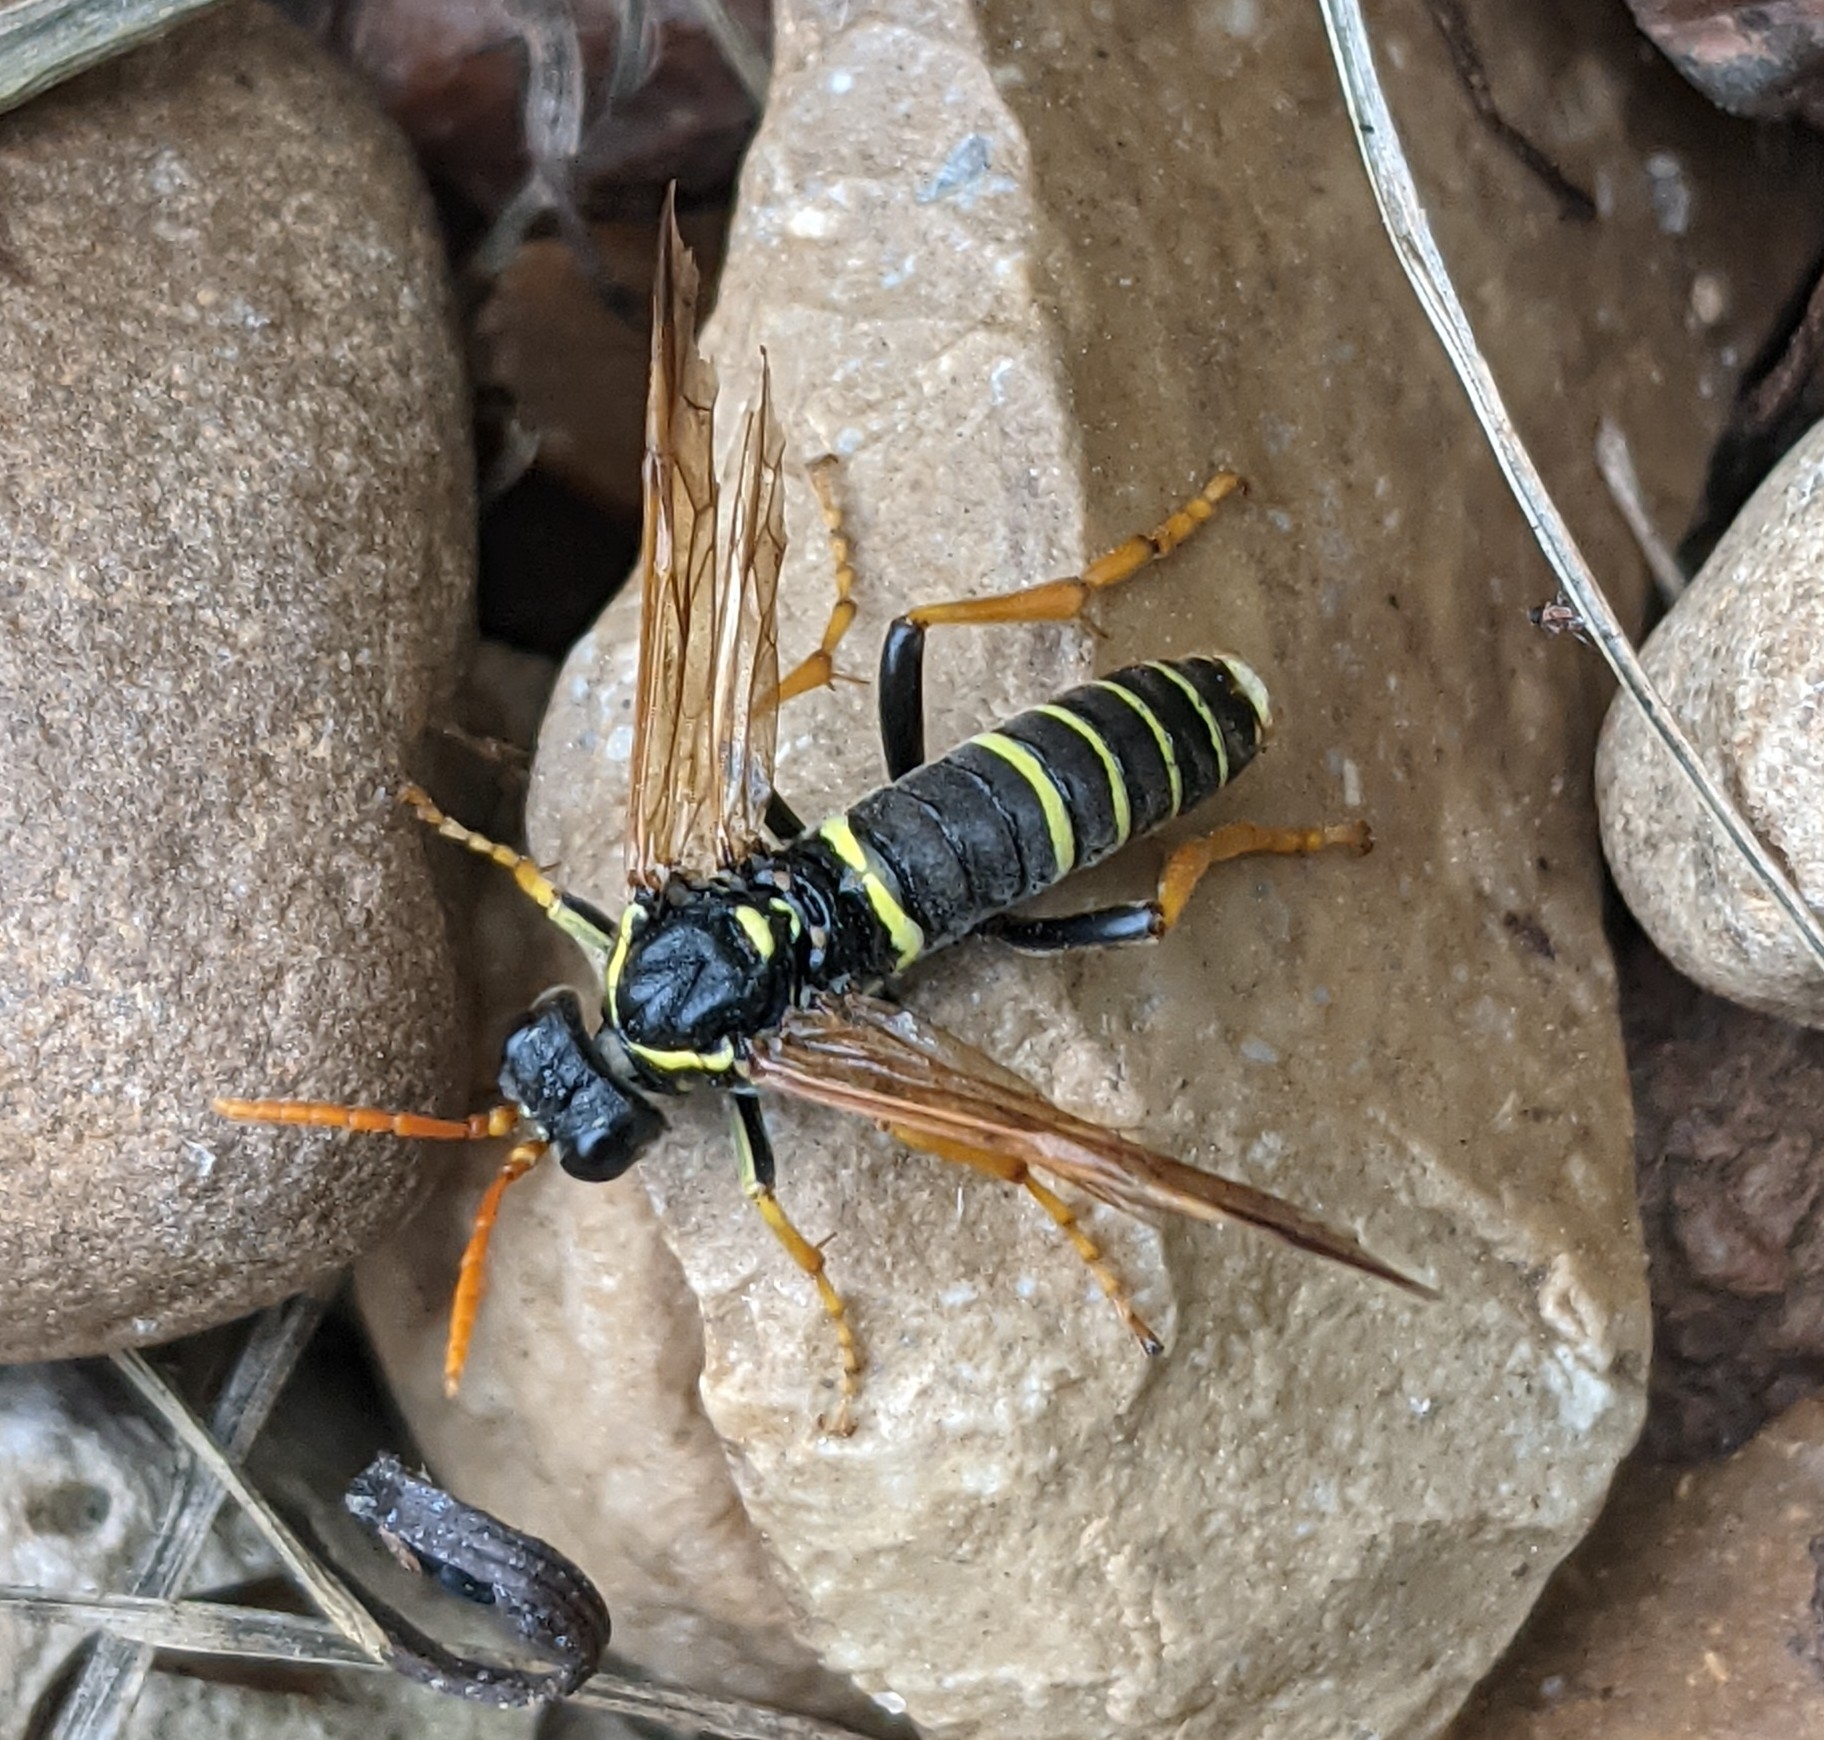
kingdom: Animalia
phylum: Arthropoda
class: Insecta
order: Hymenoptera
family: Tenthredinidae
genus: Tenthredo
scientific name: Tenthredo scrophulariae
